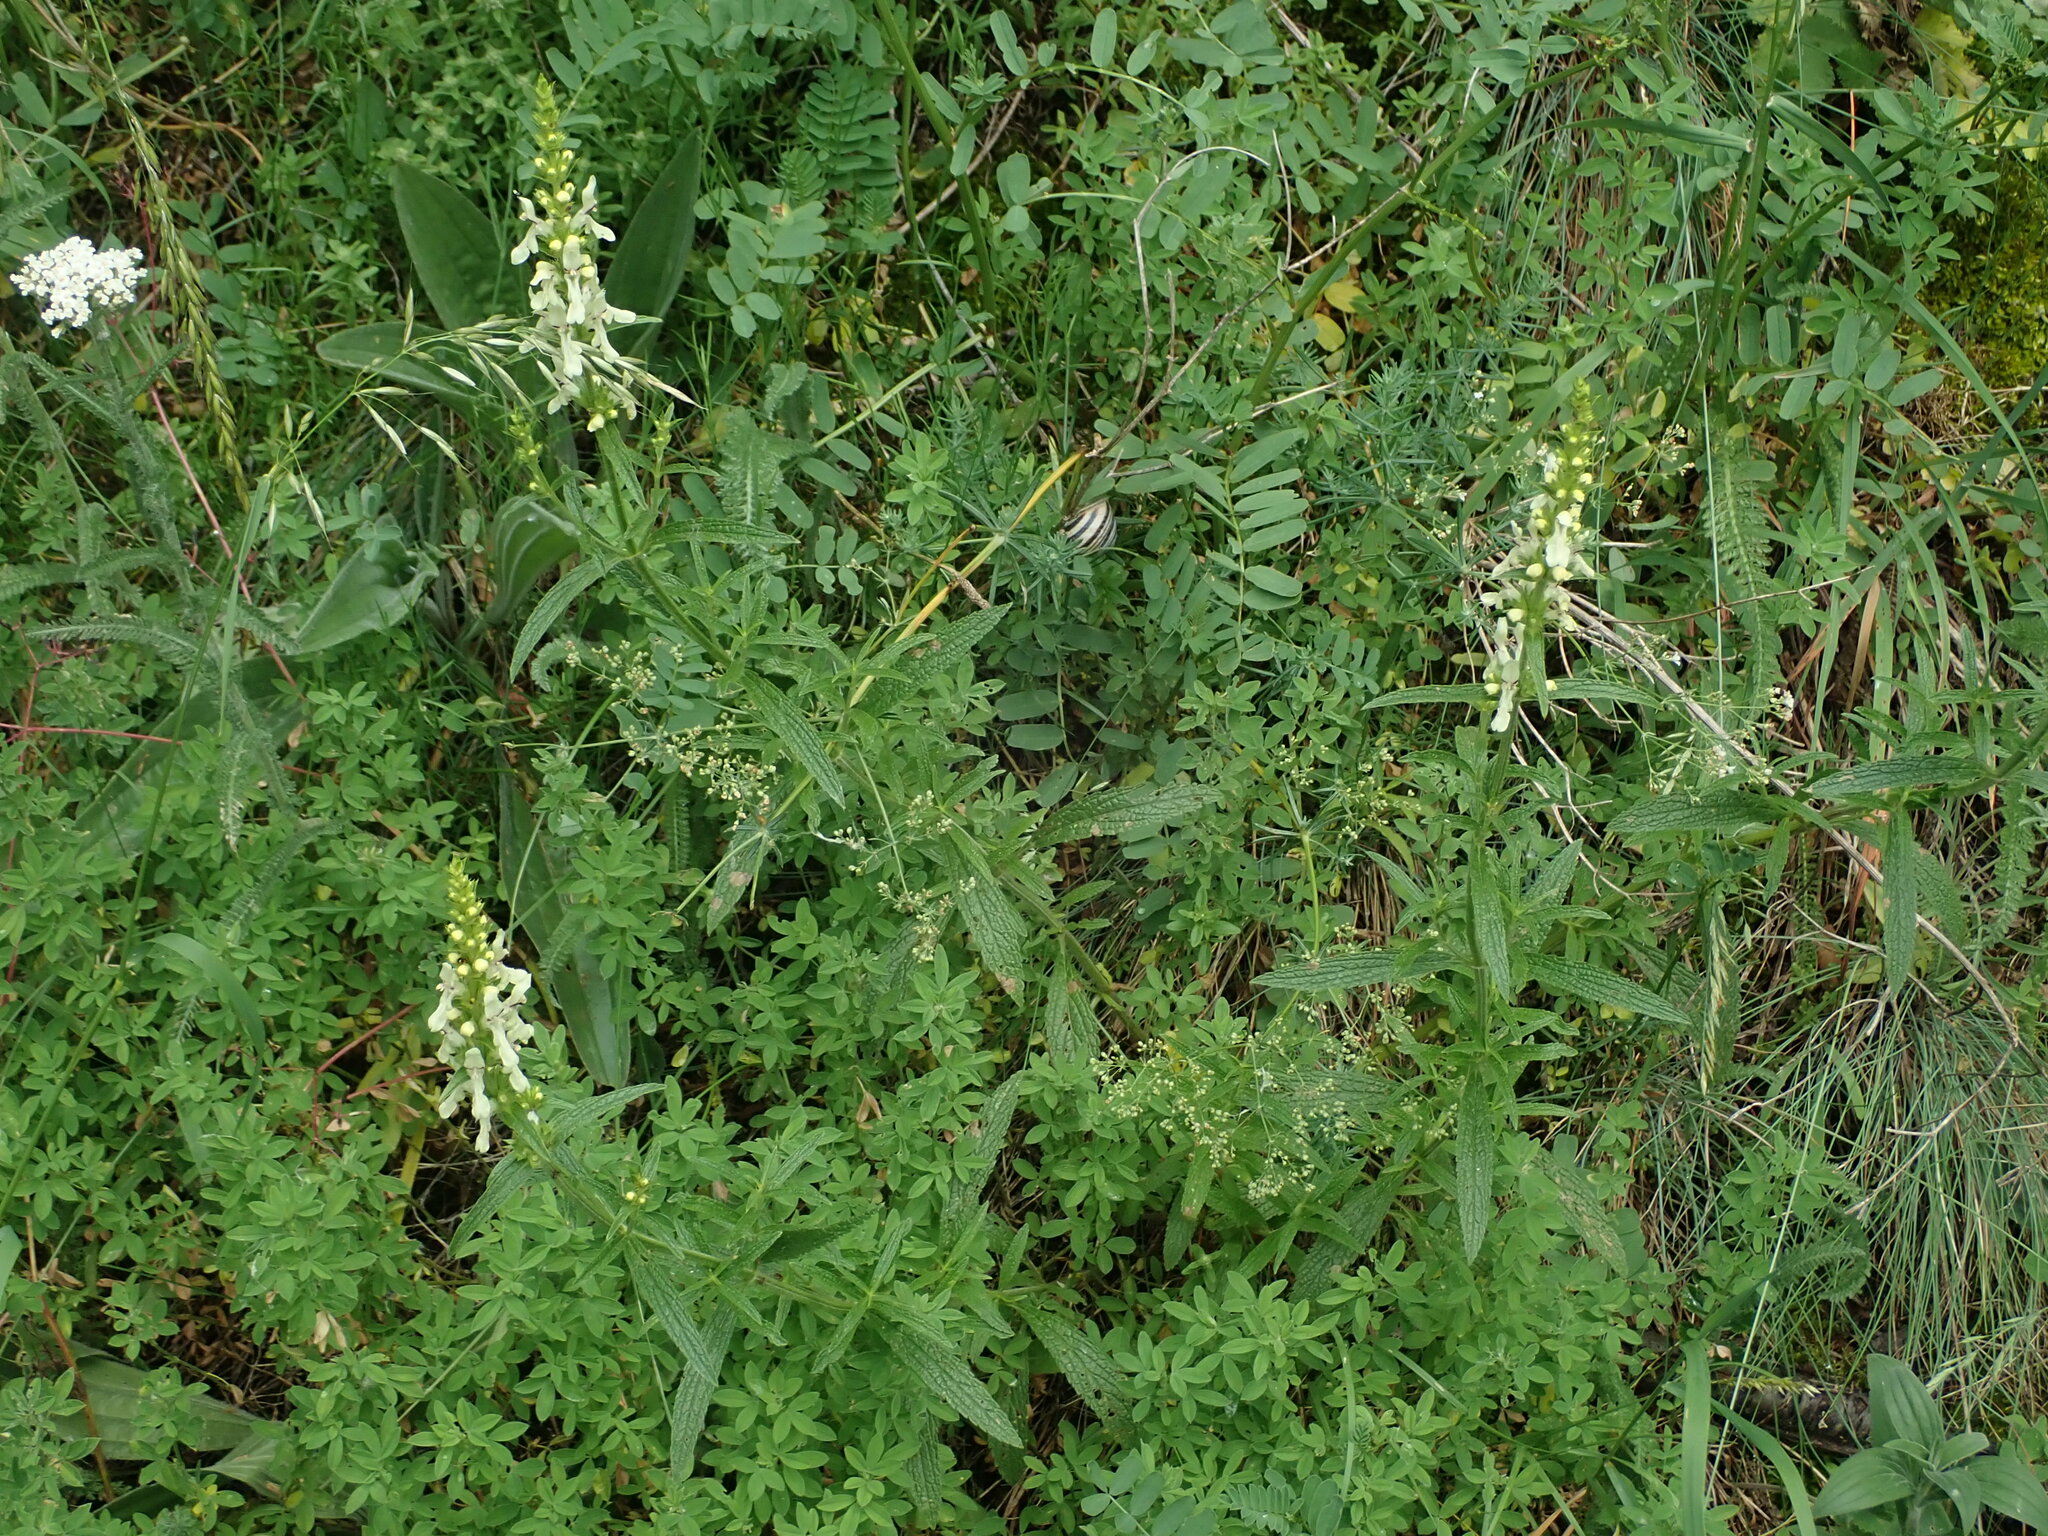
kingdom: Plantae
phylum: Tracheophyta
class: Magnoliopsida
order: Lamiales
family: Lamiaceae
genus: Stachys
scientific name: Stachys recta
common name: Perennial yellow-woundwort
